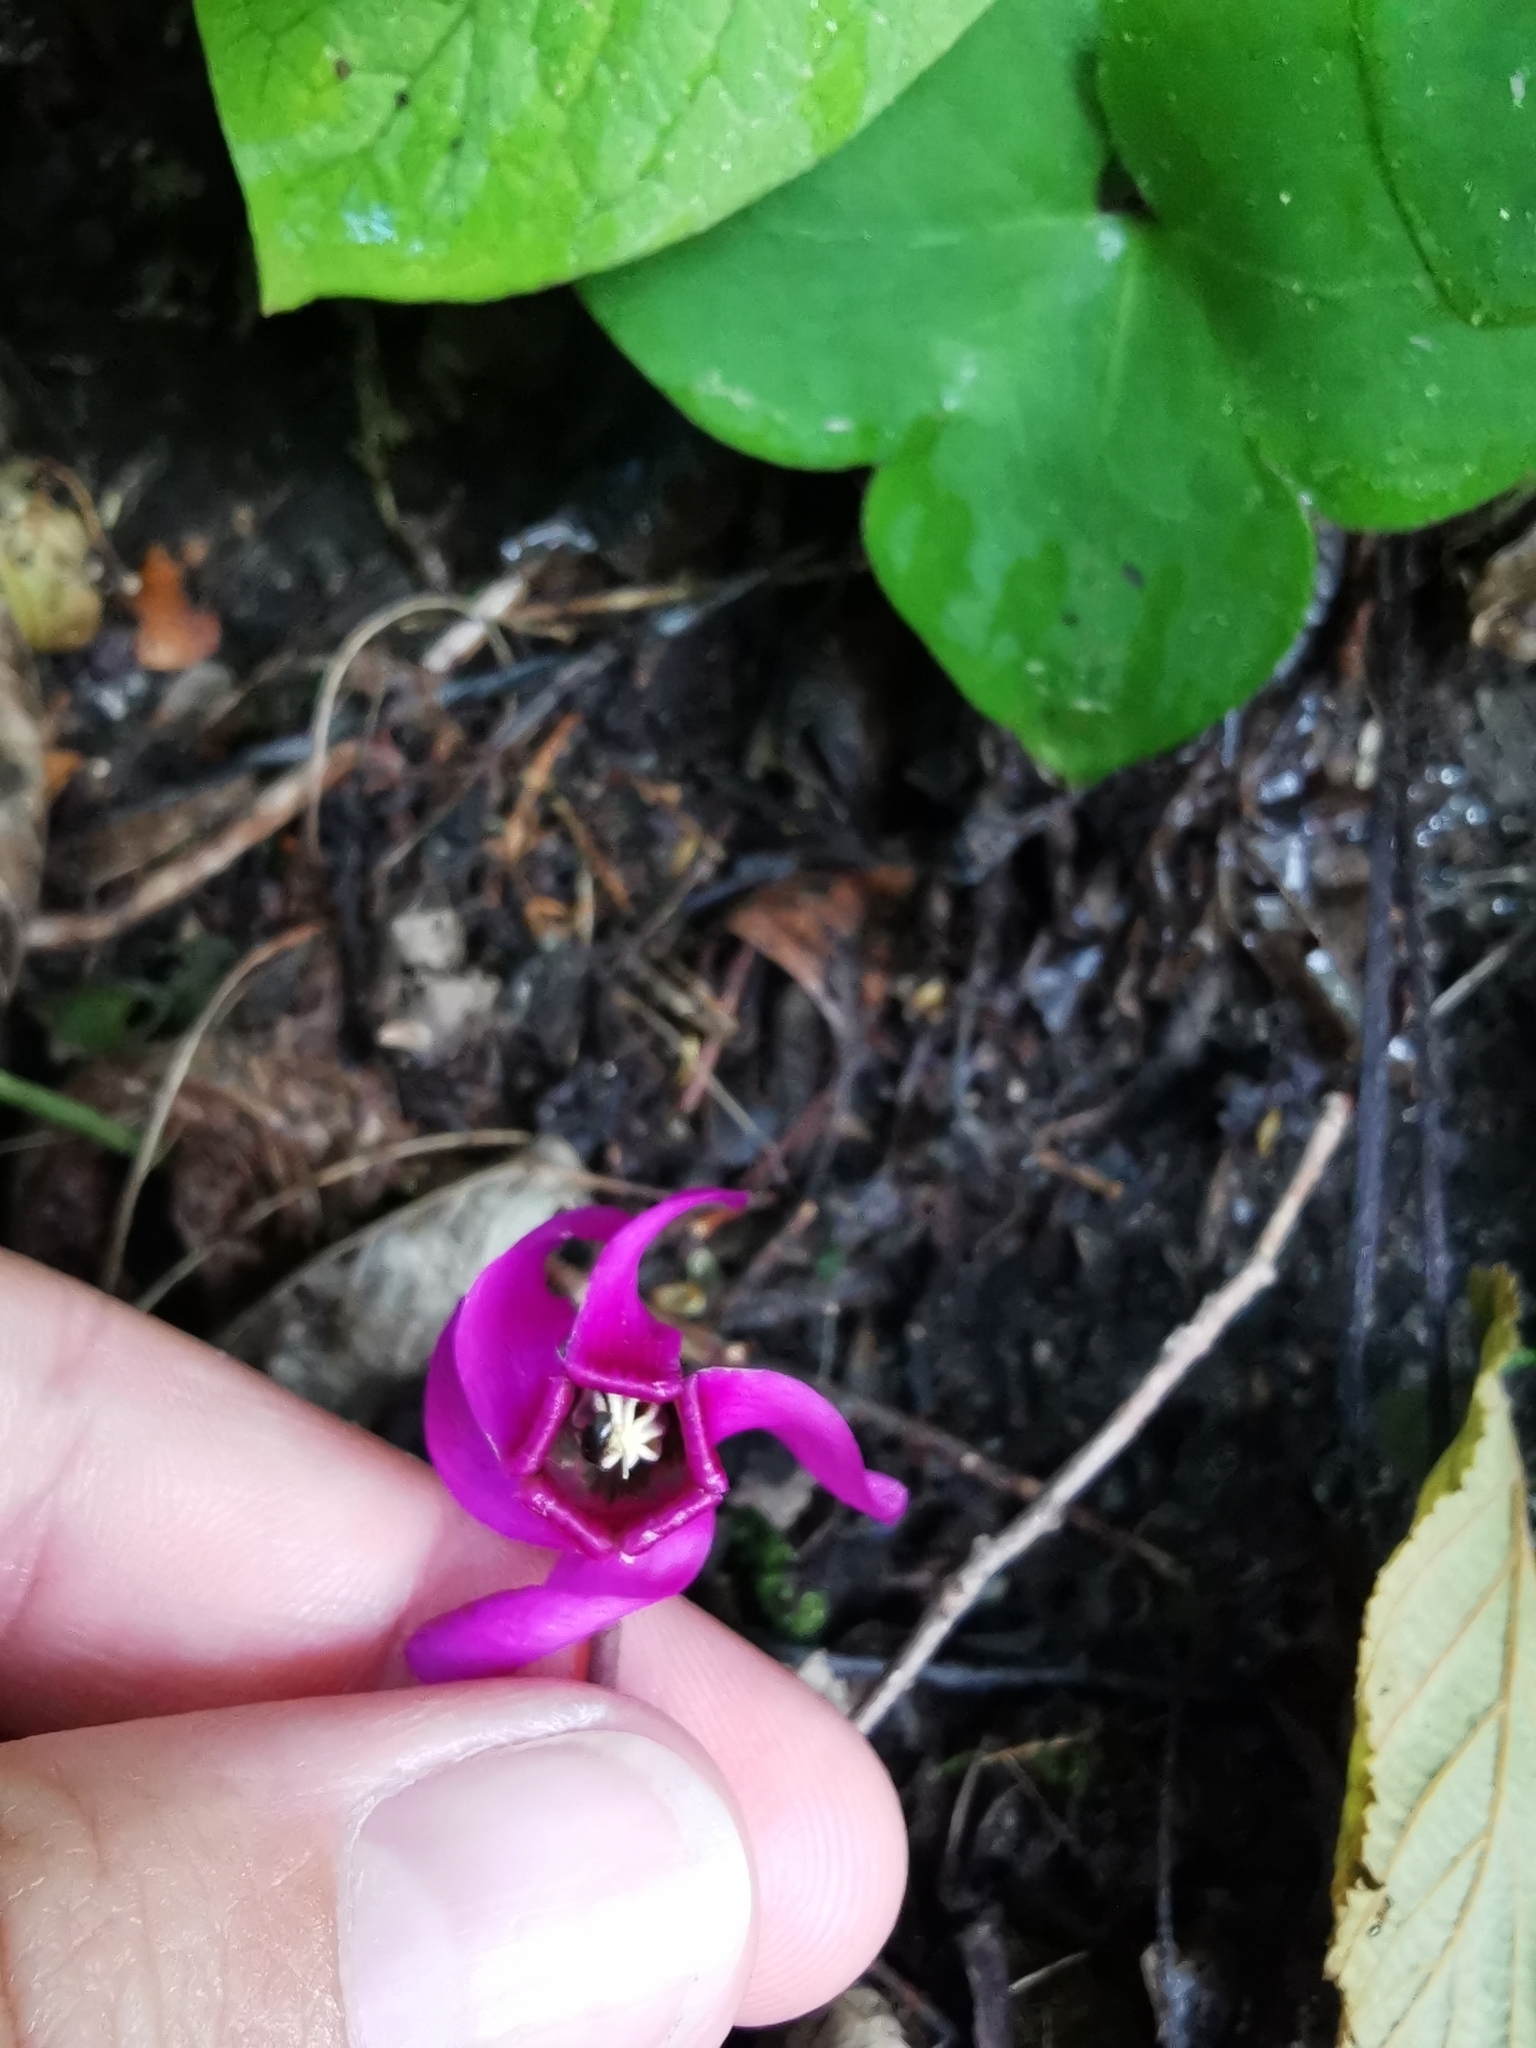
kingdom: Plantae
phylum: Tracheophyta
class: Magnoliopsida
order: Ericales
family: Primulaceae
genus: Cyclamen
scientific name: Cyclamen purpurascens
